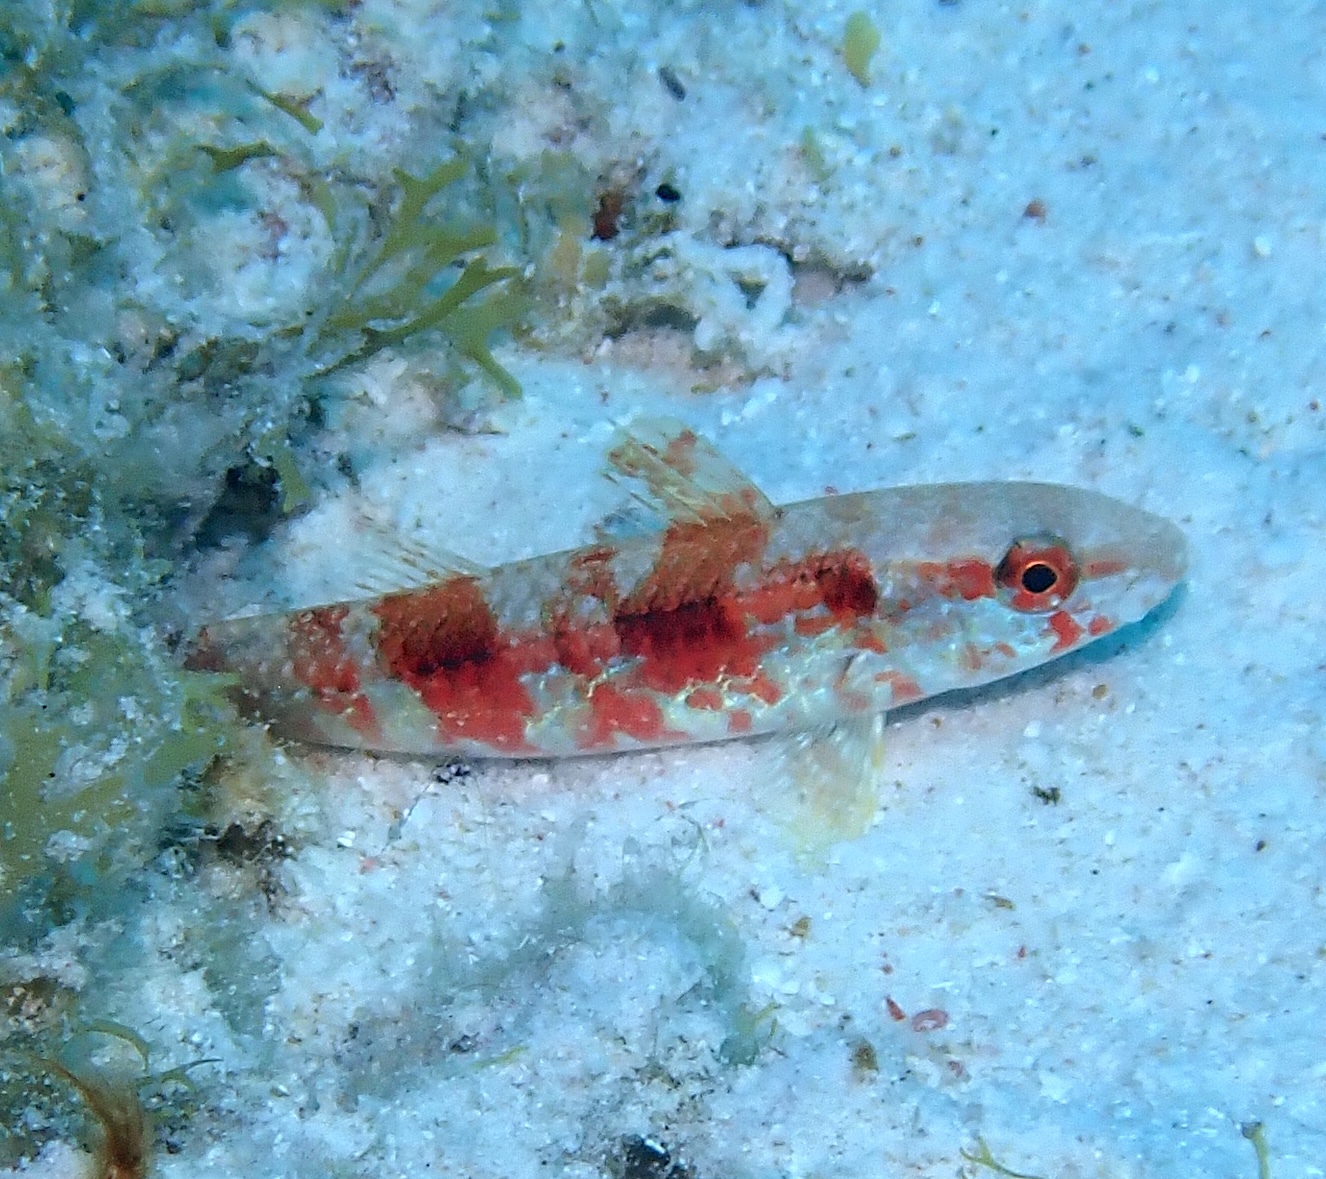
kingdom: Animalia
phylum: Chordata
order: Perciformes
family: Mullidae
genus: Pseudupeneus
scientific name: Pseudupeneus maculatus
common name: Spotted goatfish
